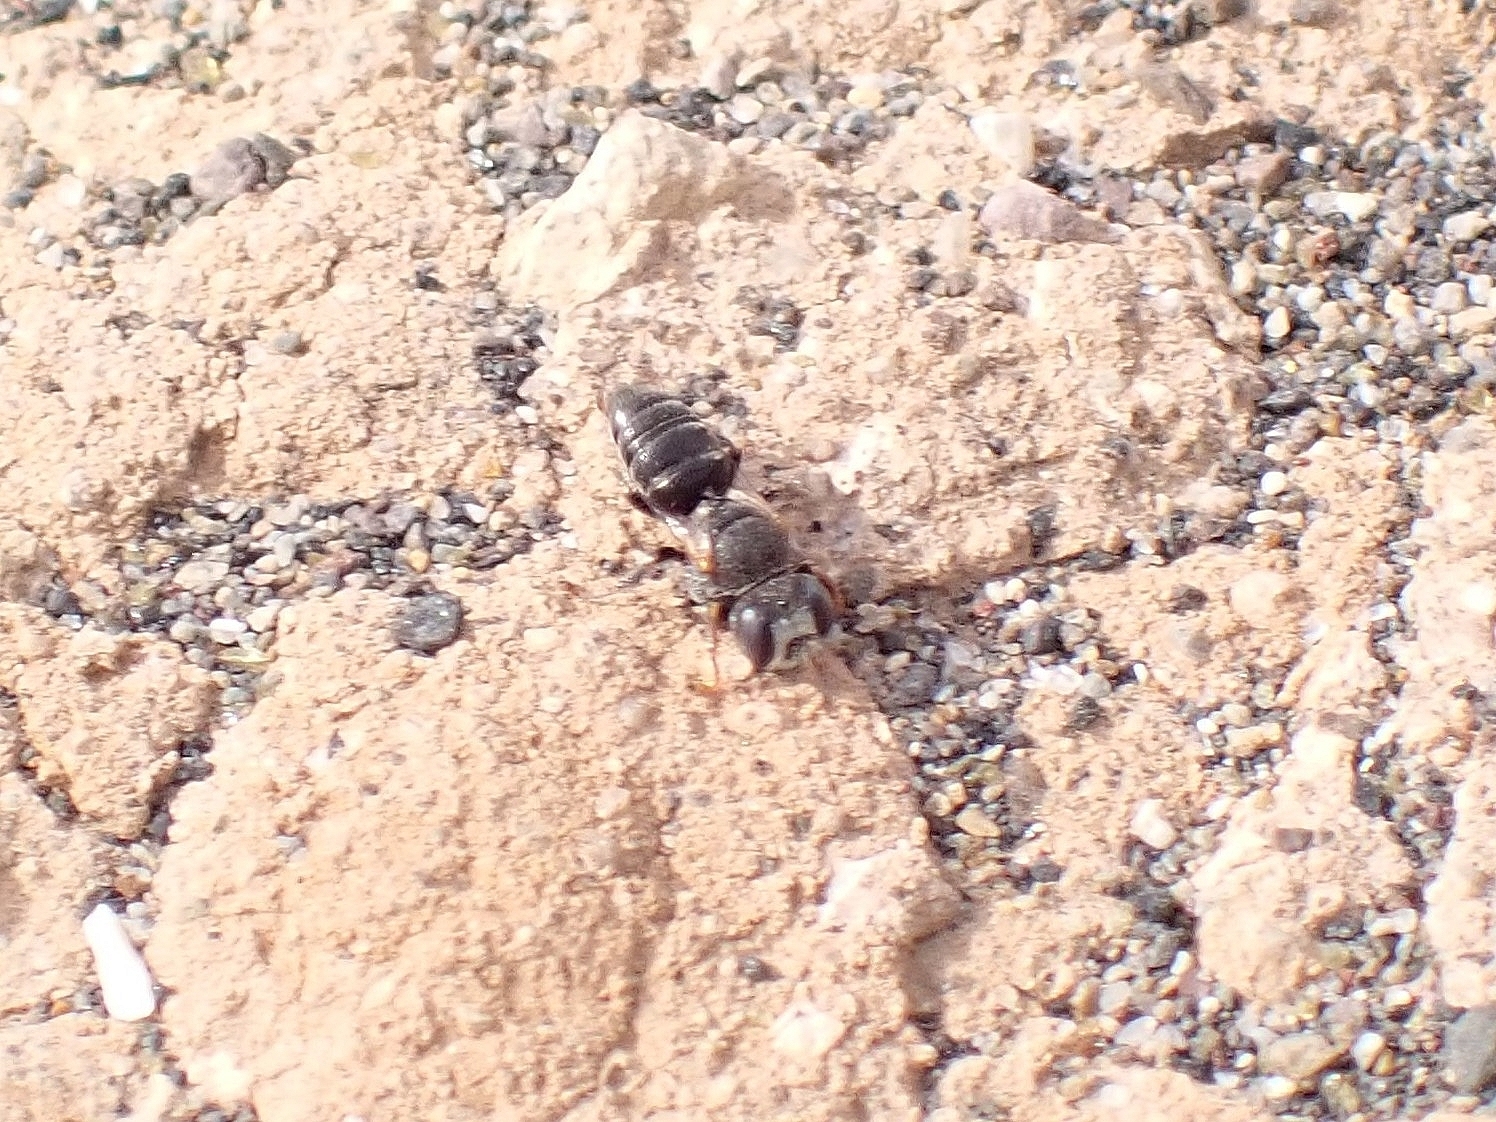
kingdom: Animalia
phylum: Arthropoda
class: Insecta
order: Hymenoptera
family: Crabronidae
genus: Oxybelus
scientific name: Oxybelus fischeri
